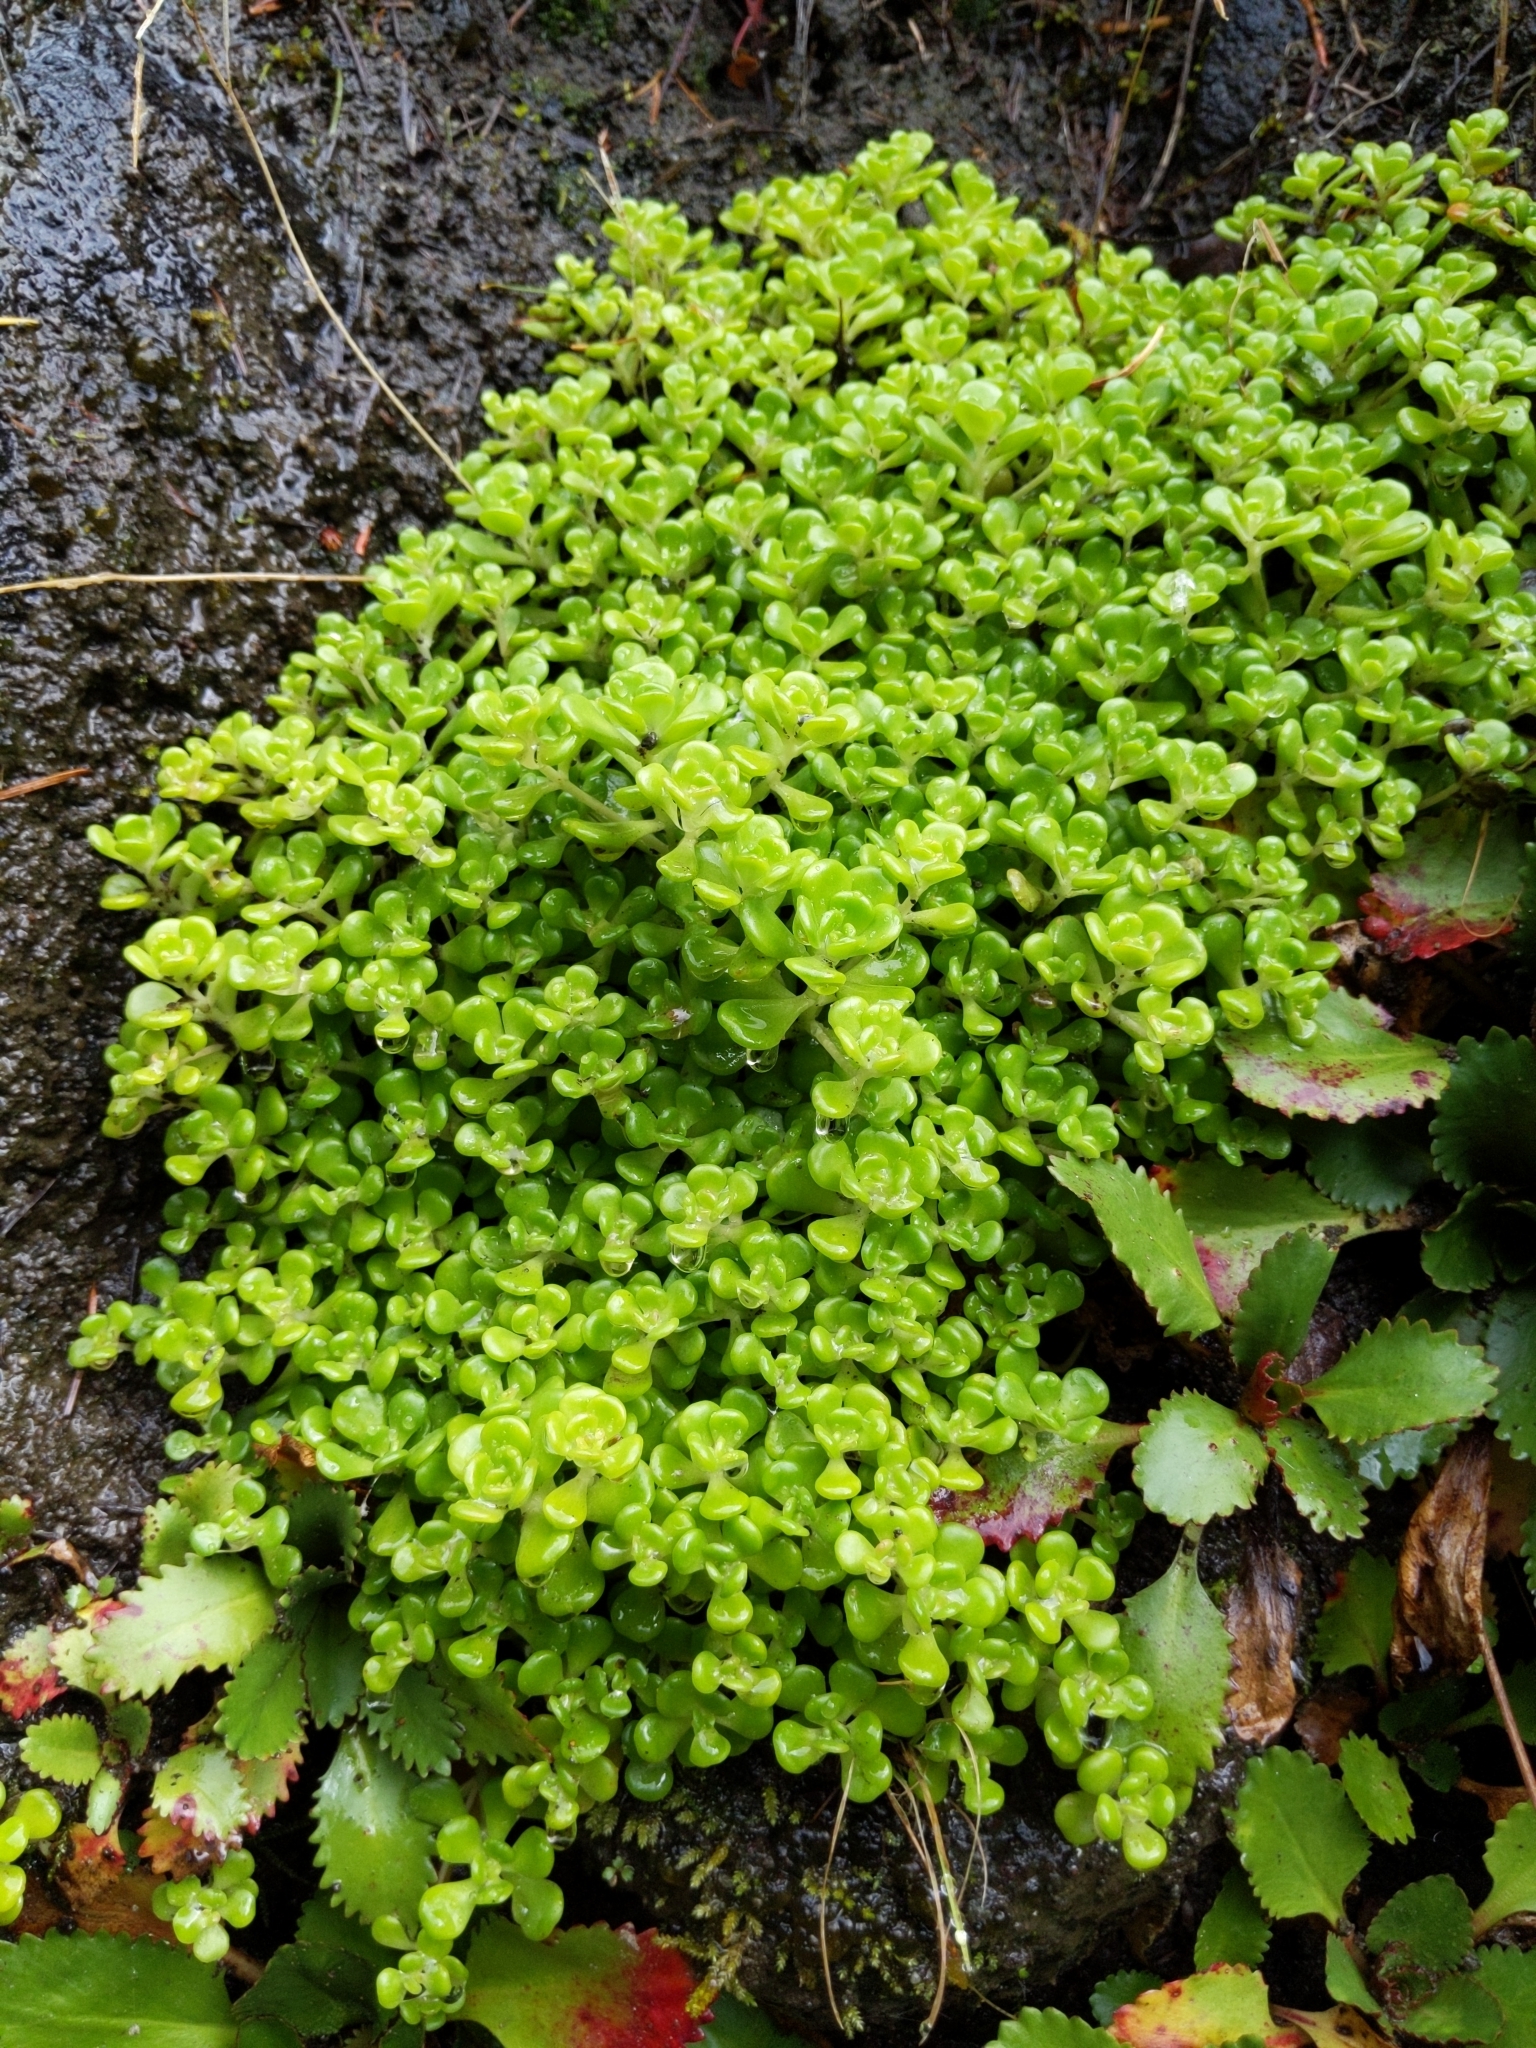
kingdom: Plantae
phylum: Tracheophyta
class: Magnoliopsida
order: Saxifragales
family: Crassulaceae
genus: Sedum
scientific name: Sedum oreganum
